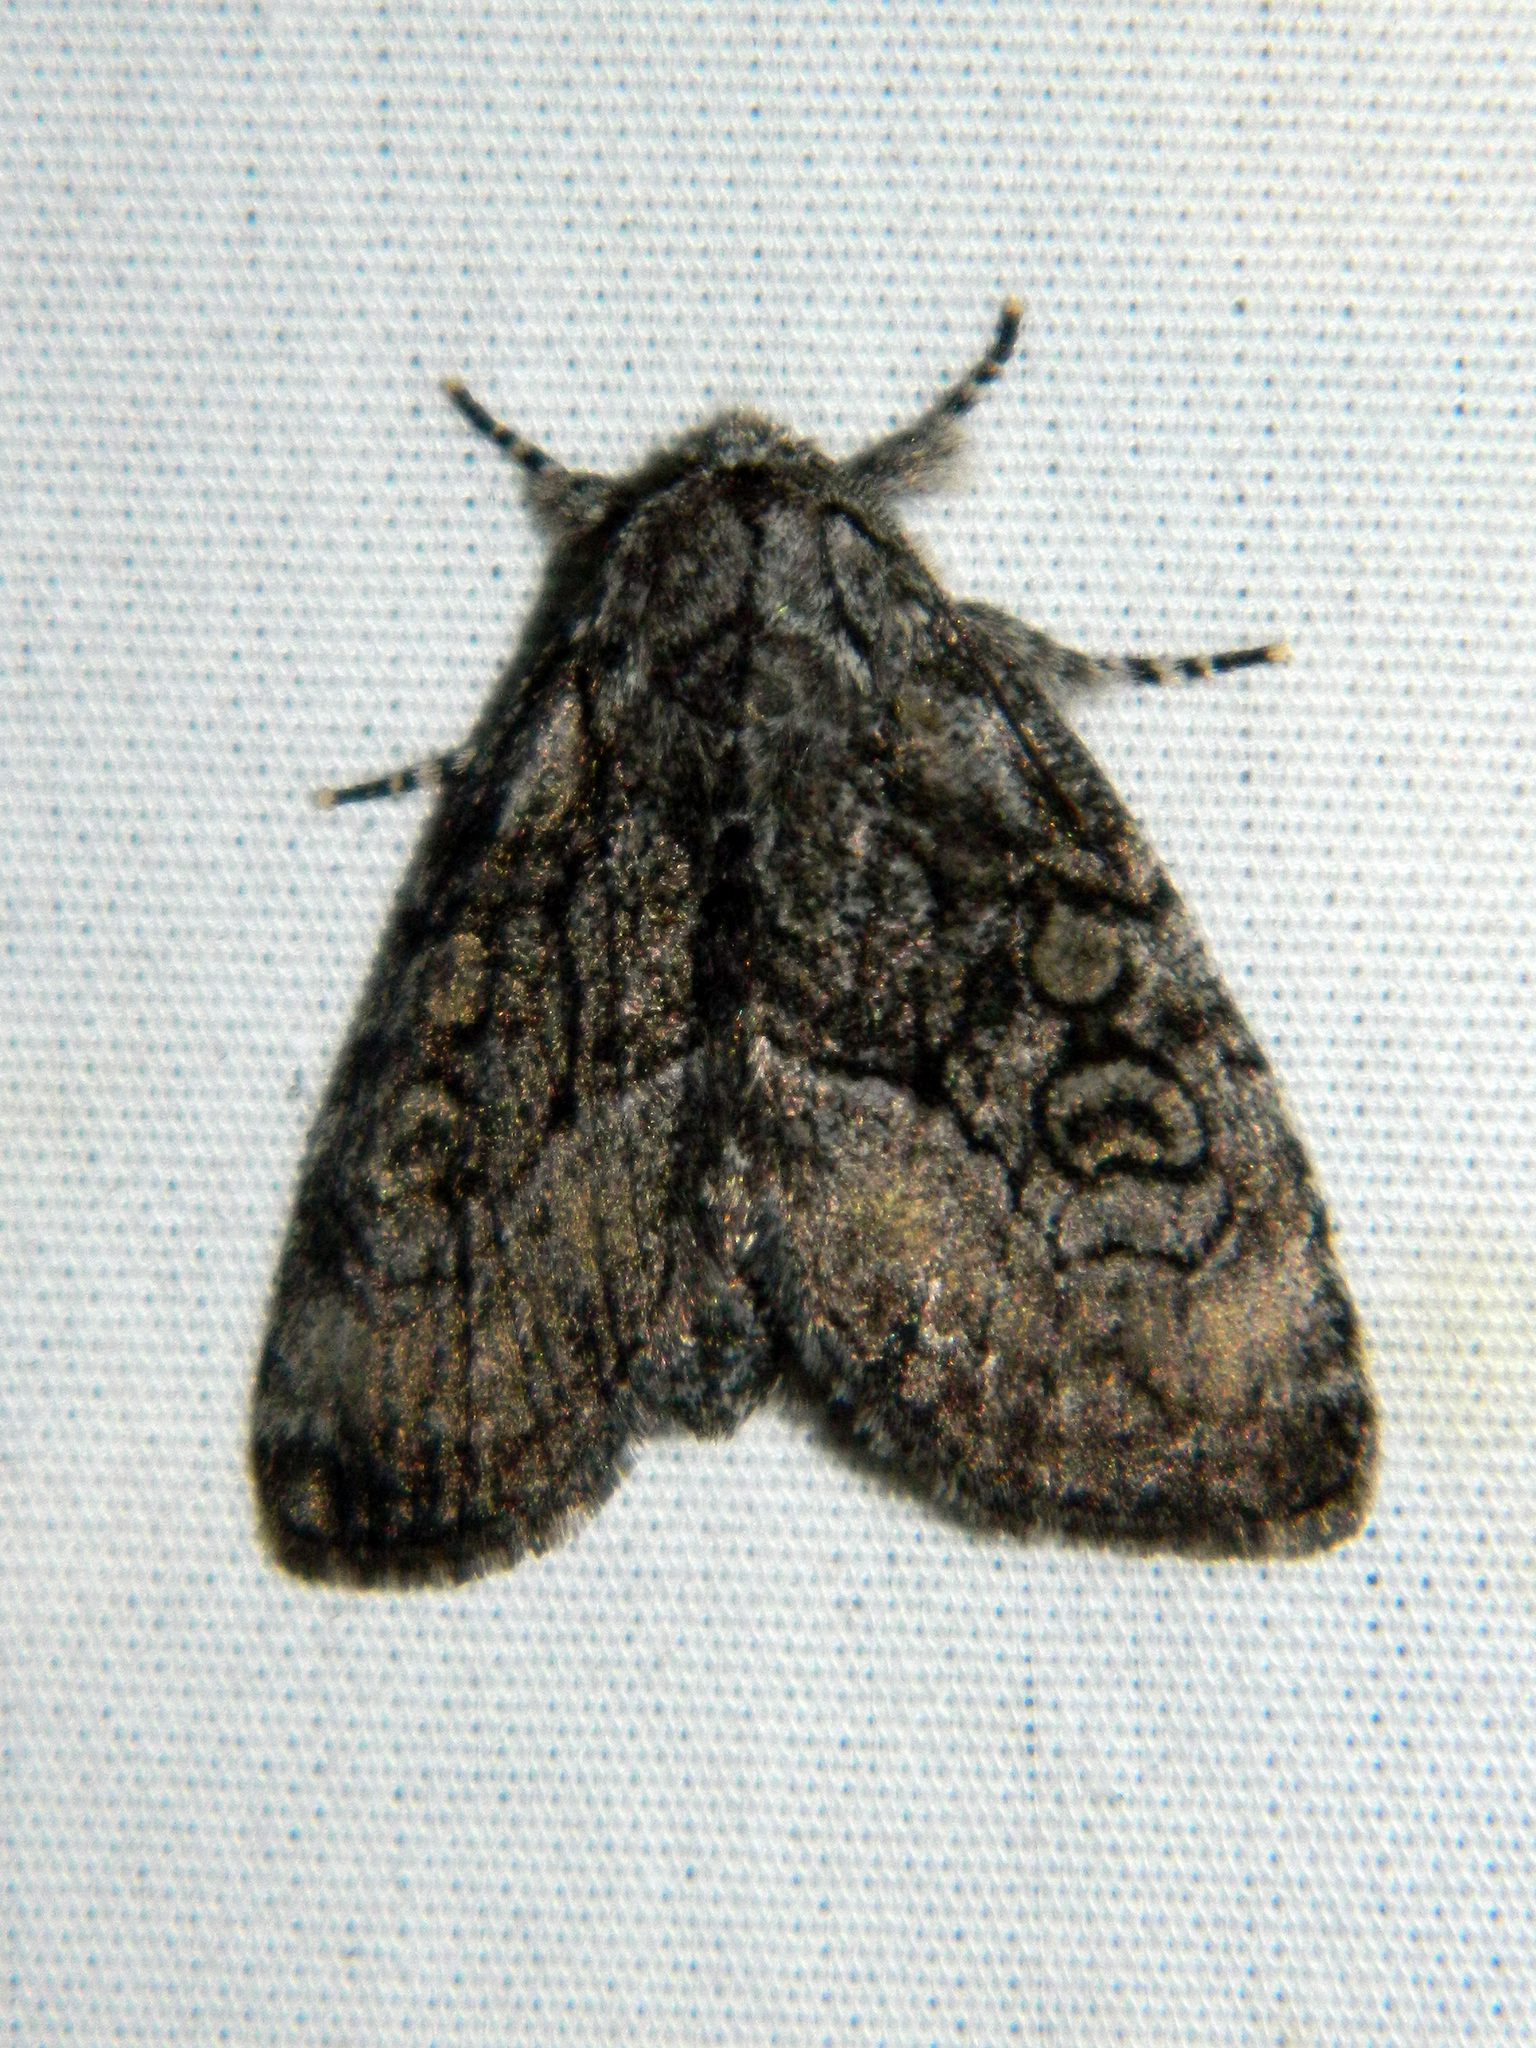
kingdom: Animalia
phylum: Arthropoda
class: Insecta
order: Lepidoptera
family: Noctuidae
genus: Raphia
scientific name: Raphia frater
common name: Brother
